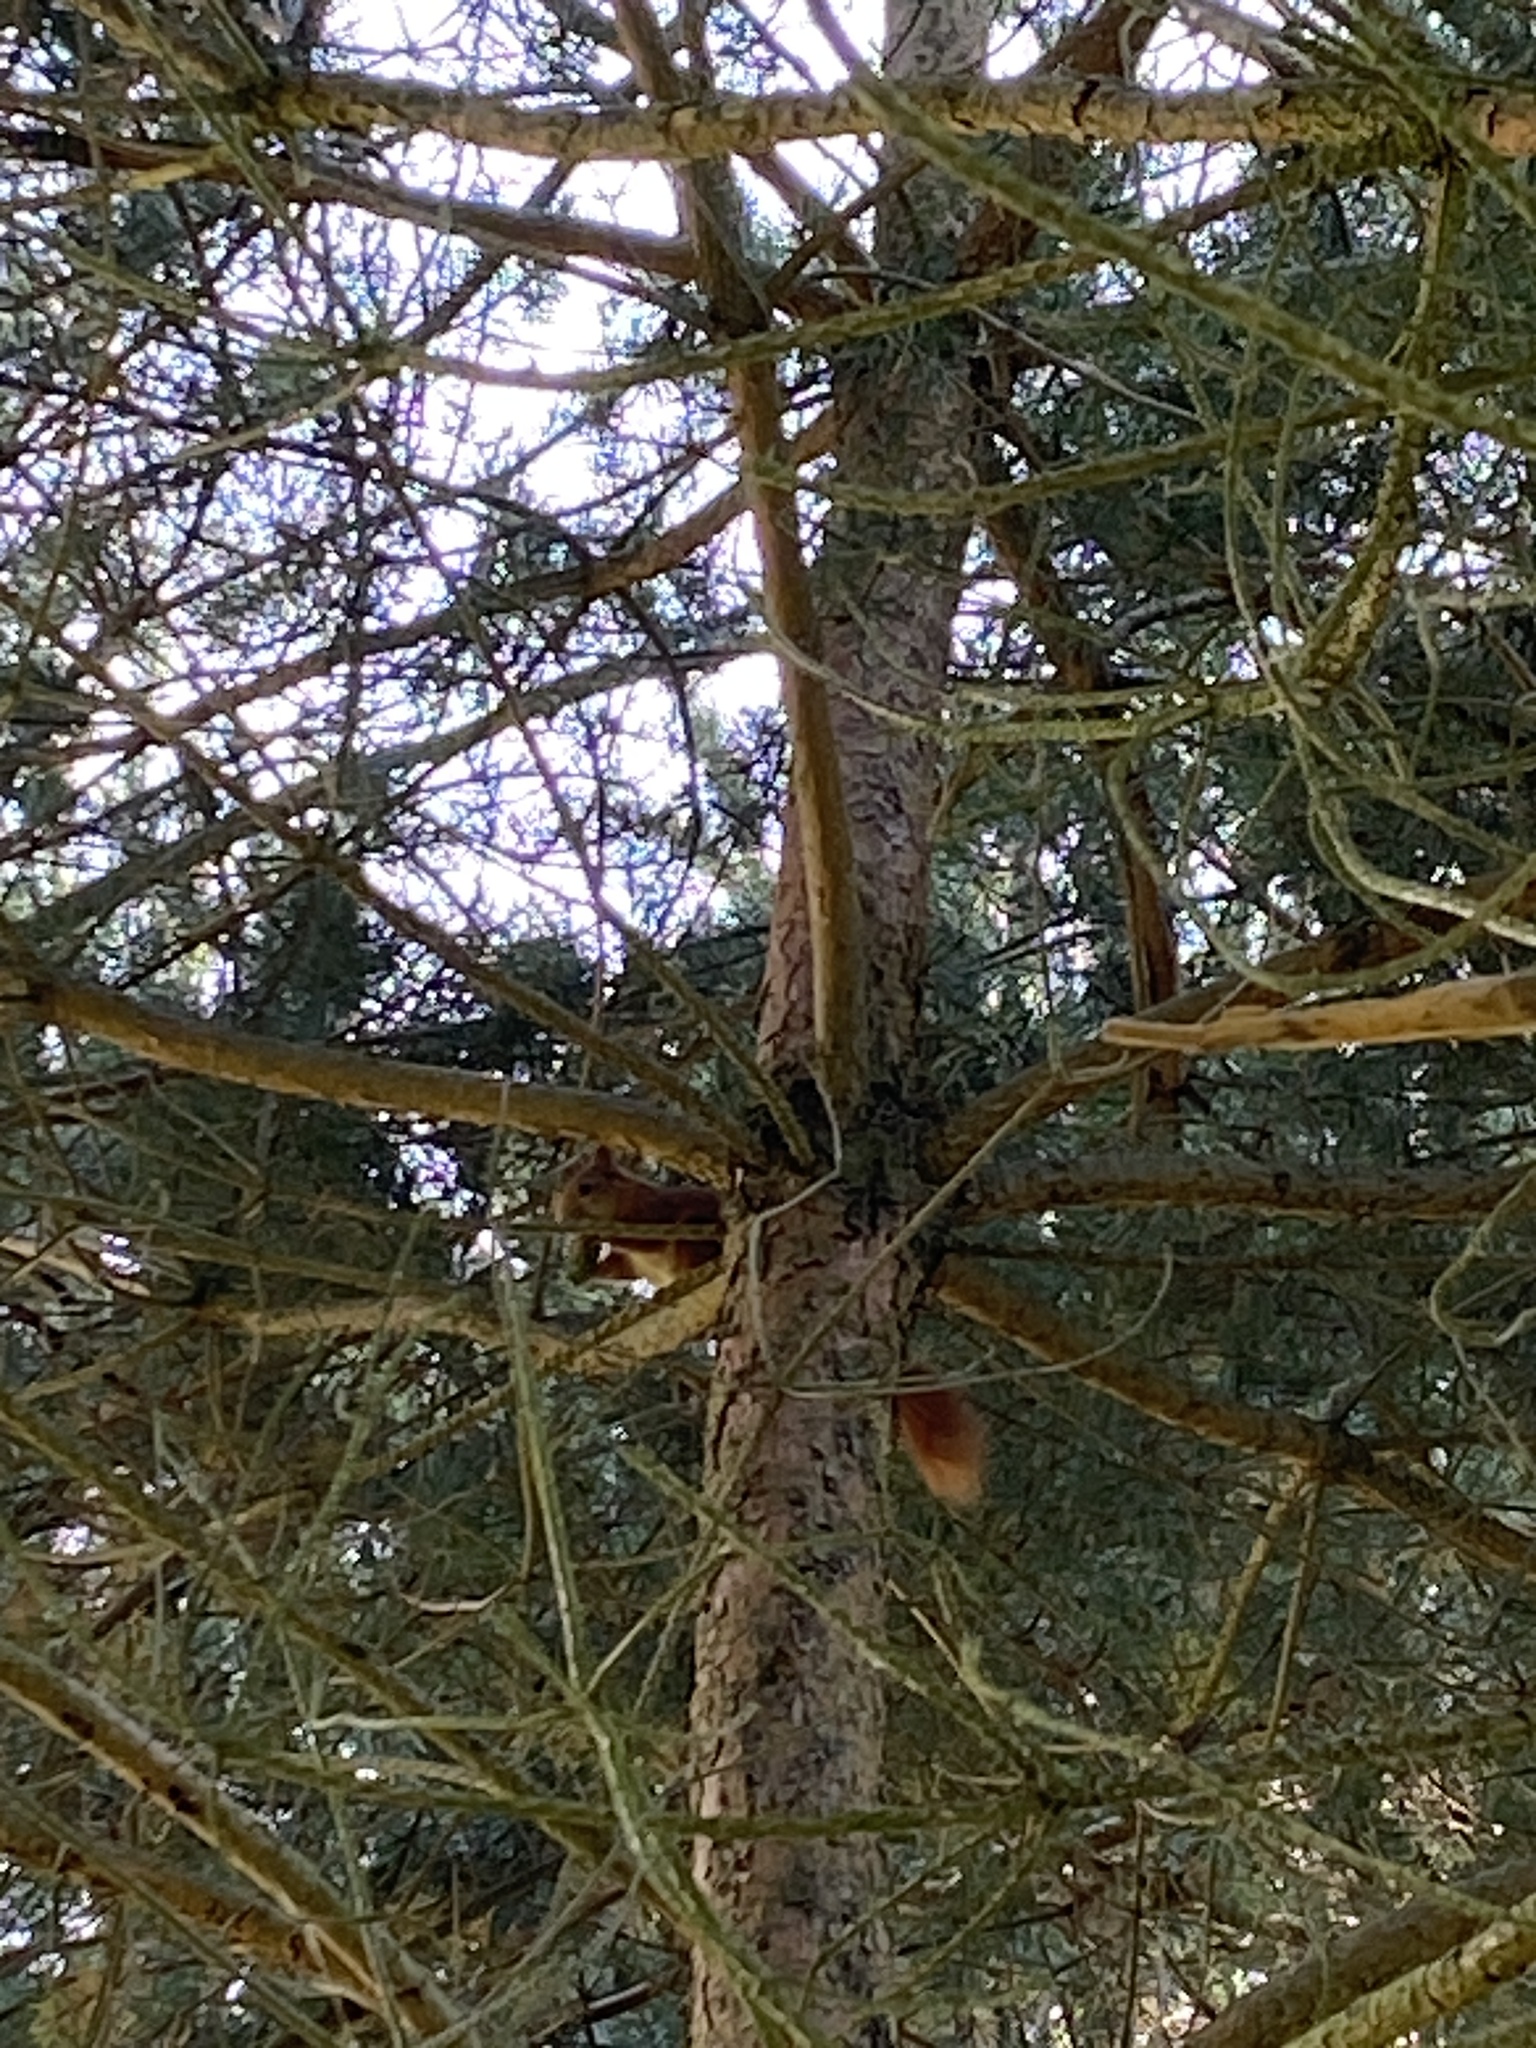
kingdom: Animalia
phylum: Chordata
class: Mammalia
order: Rodentia
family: Sciuridae
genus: Sciurus
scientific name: Sciurus vulgaris
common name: Eurasian red squirrel
